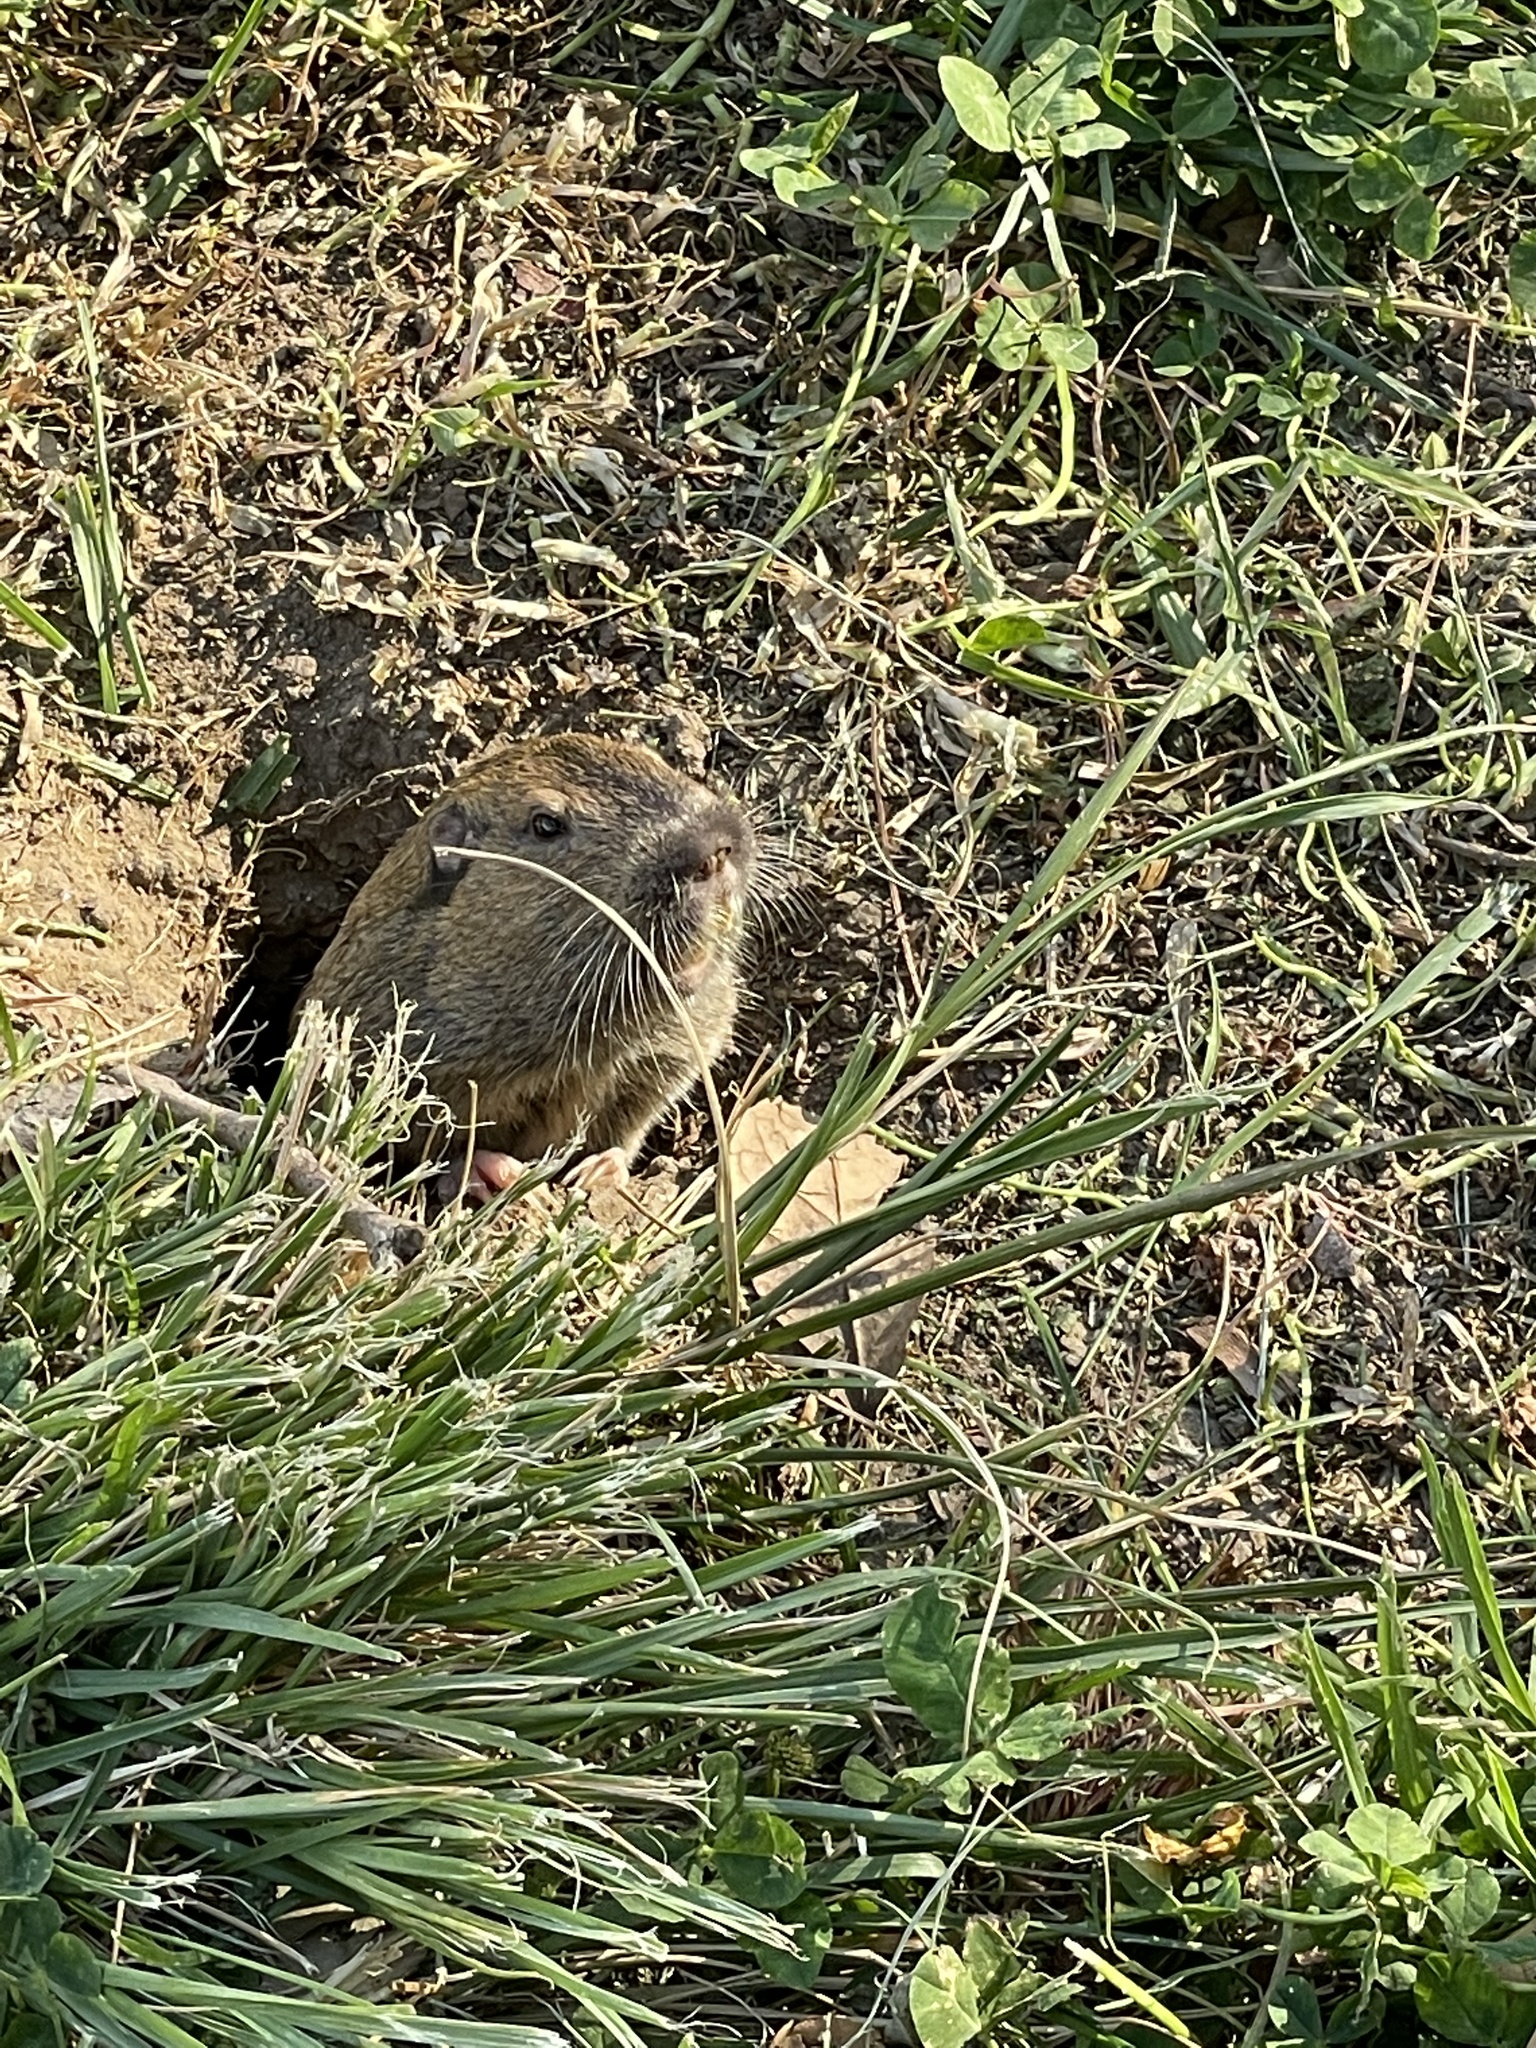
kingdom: Animalia
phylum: Chordata
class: Mammalia
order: Rodentia
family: Geomyidae
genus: Thomomys
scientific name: Thomomys bottae
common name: Botta's pocket gopher
